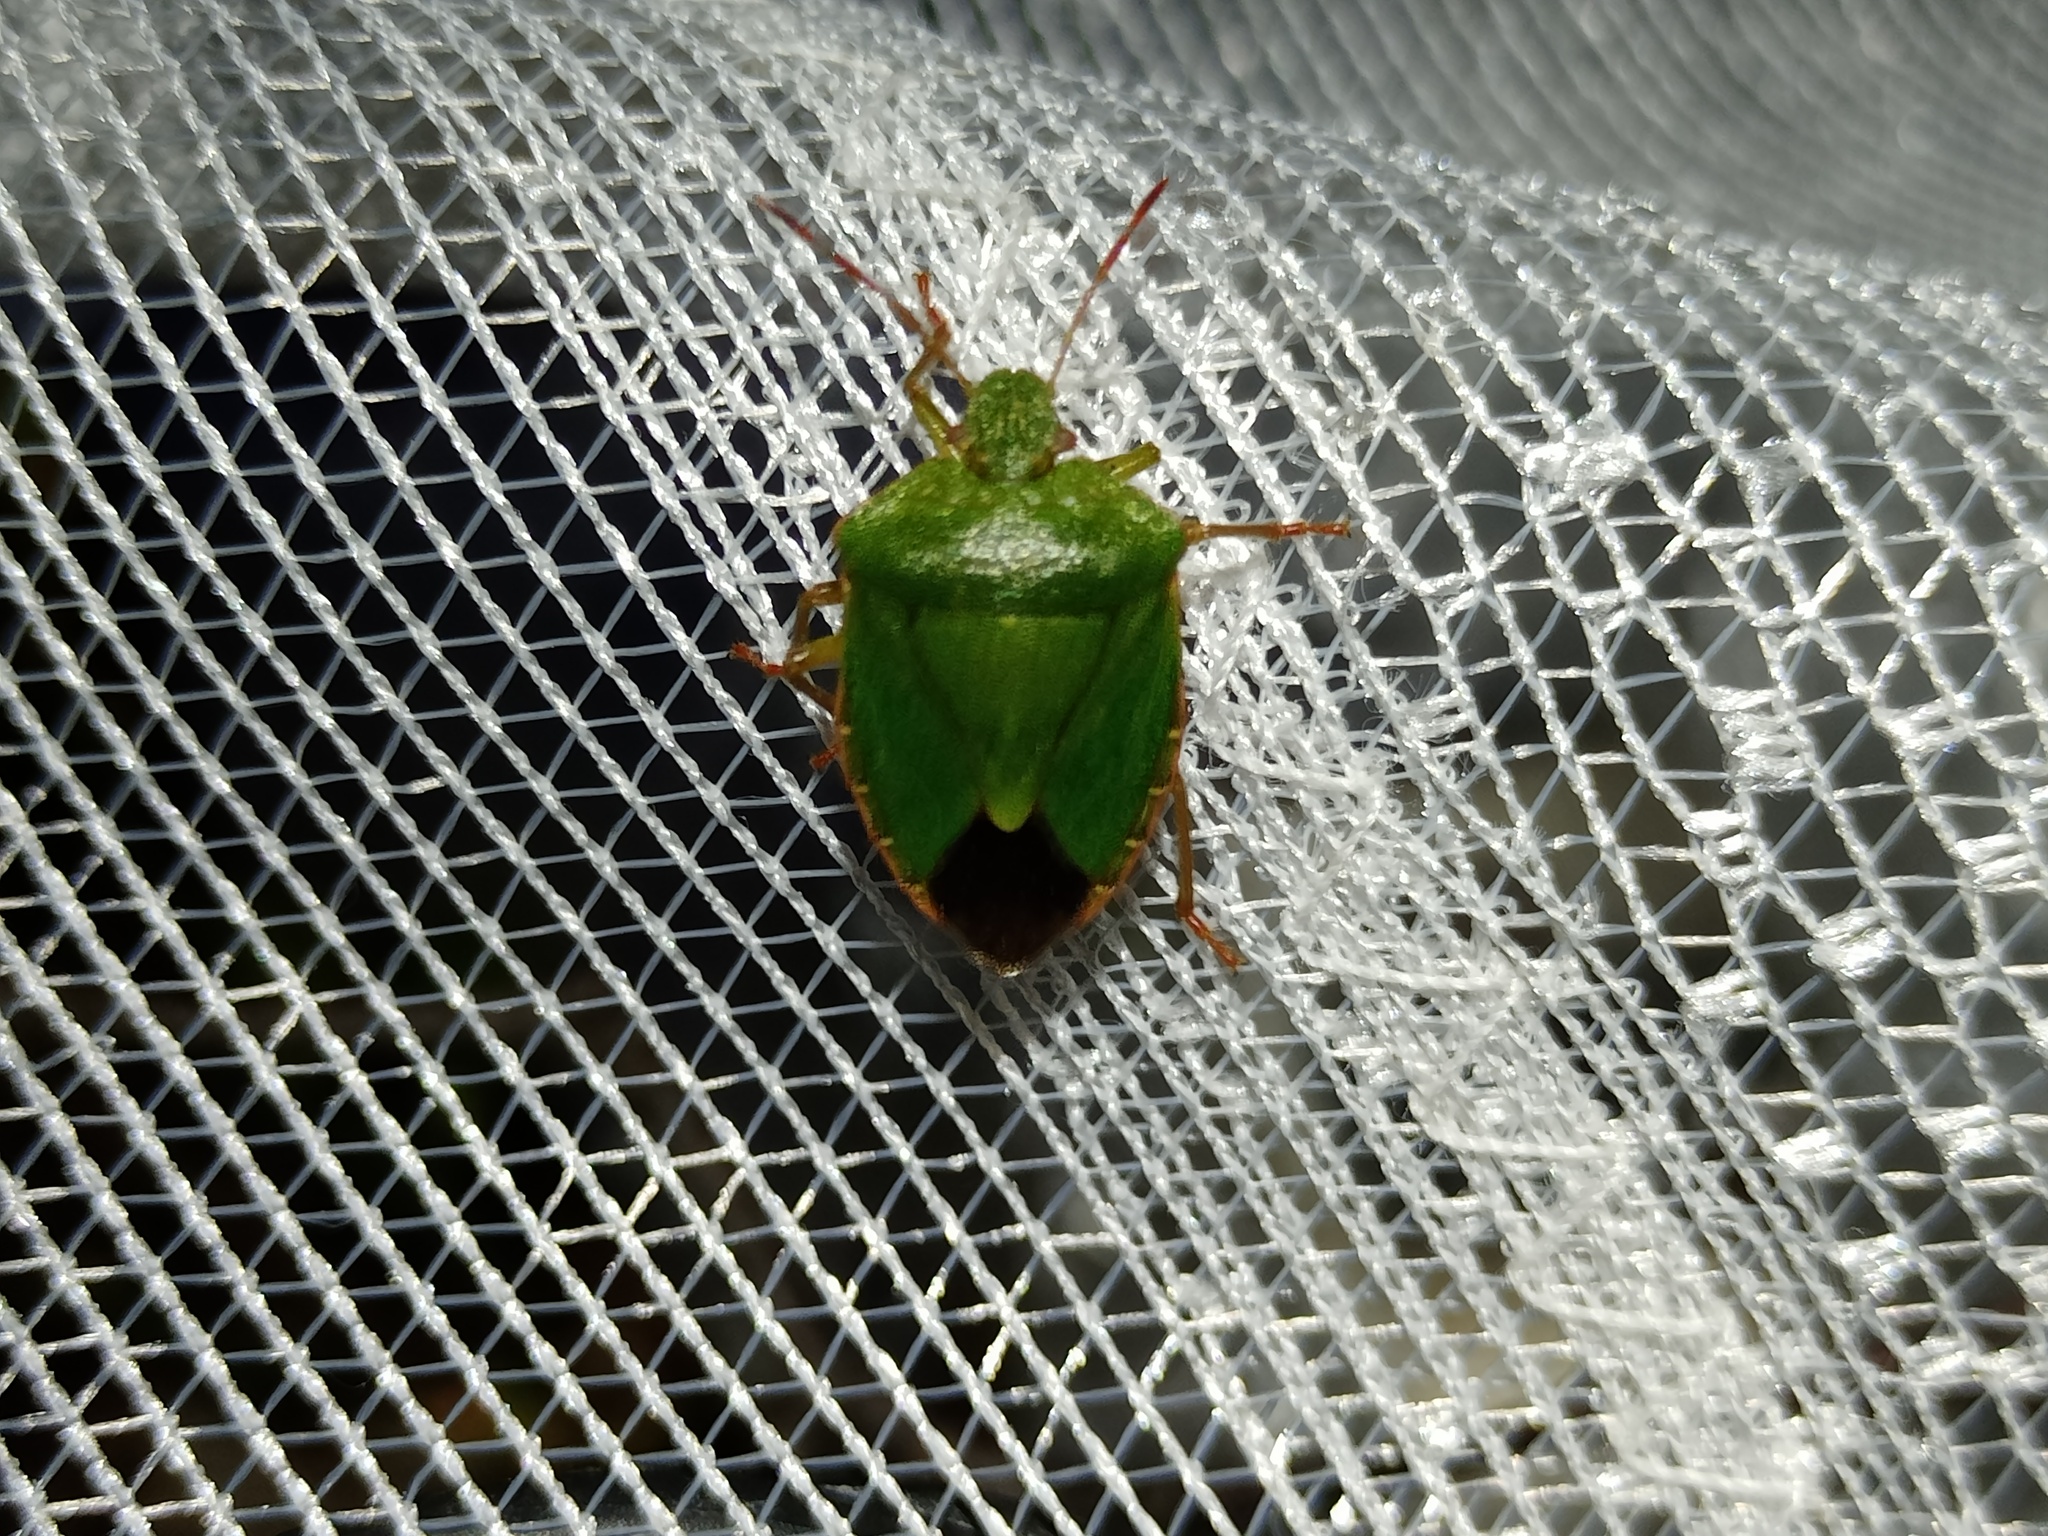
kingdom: Animalia
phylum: Arthropoda
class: Insecta
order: Hemiptera
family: Pentatomidae
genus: Palomena
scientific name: Palomena prasina
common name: Green shieldbug
